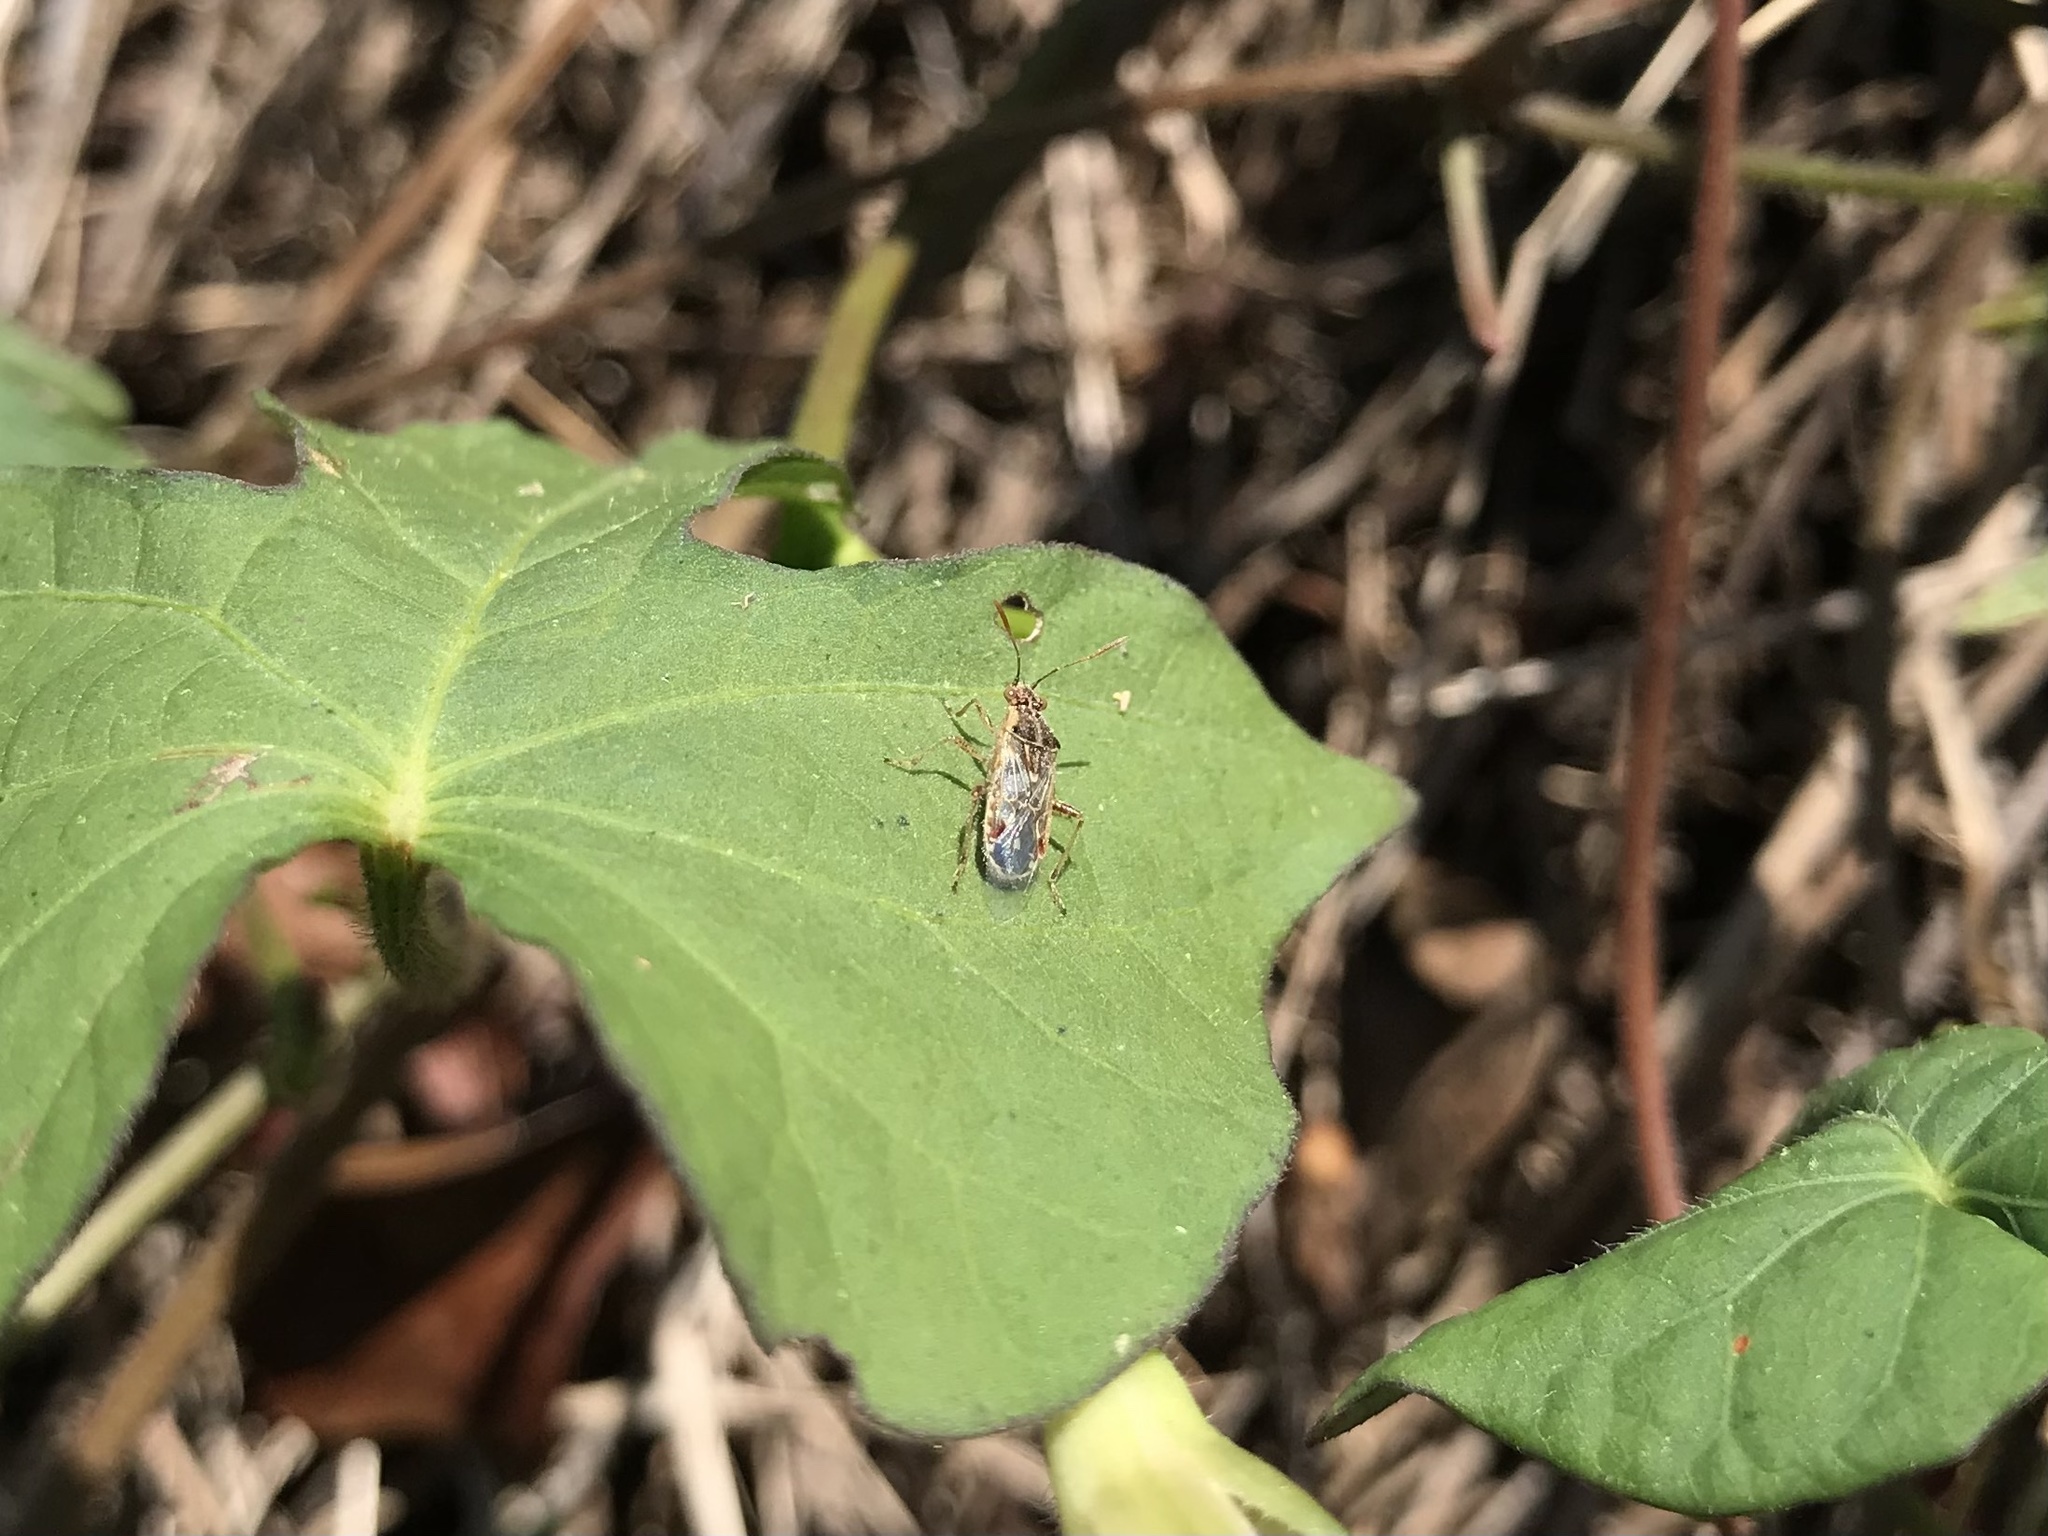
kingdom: Animalia
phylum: Arthropoda
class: Insecta
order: Hemiptera
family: Rhopalidae
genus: Liorhyssus
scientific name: Liorhyssus hyalinus
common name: Scentless plant bug
